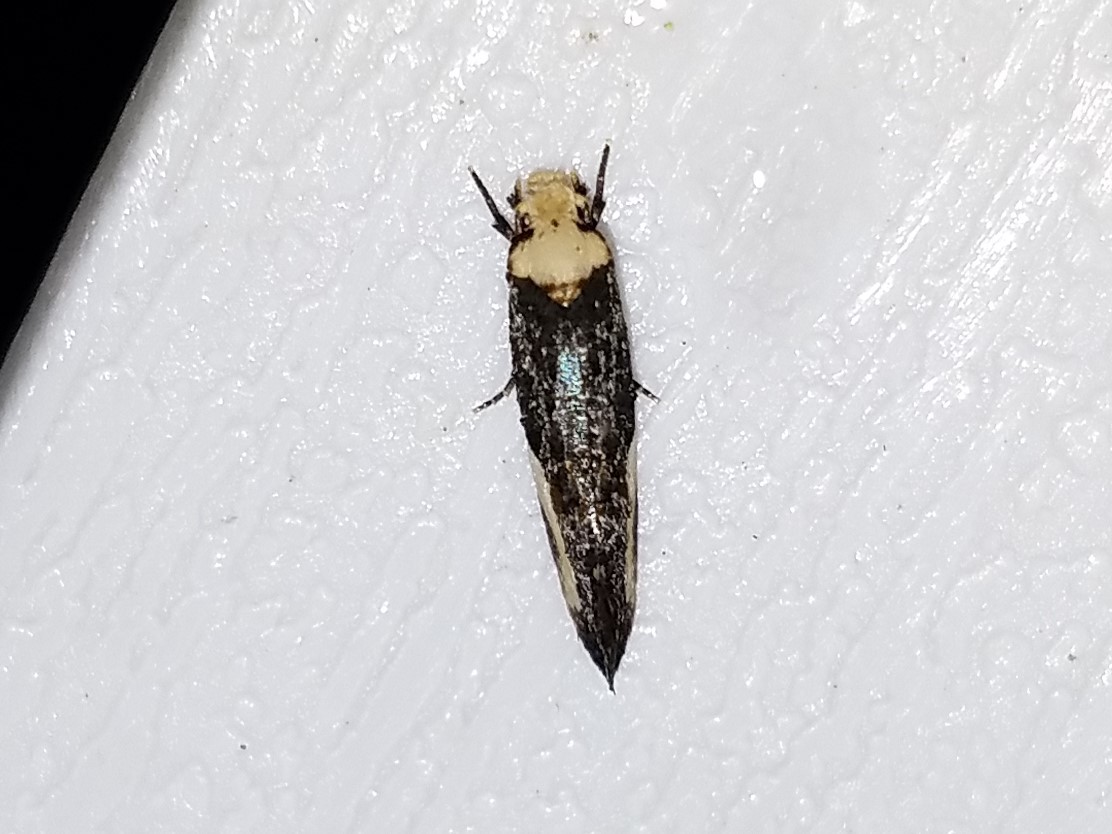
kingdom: Animalia
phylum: Arthropoda
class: Insecta
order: Lepidoptera
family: Tineidae
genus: Monopis
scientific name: Monopis longella
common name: Pavlovski's monopis moth
